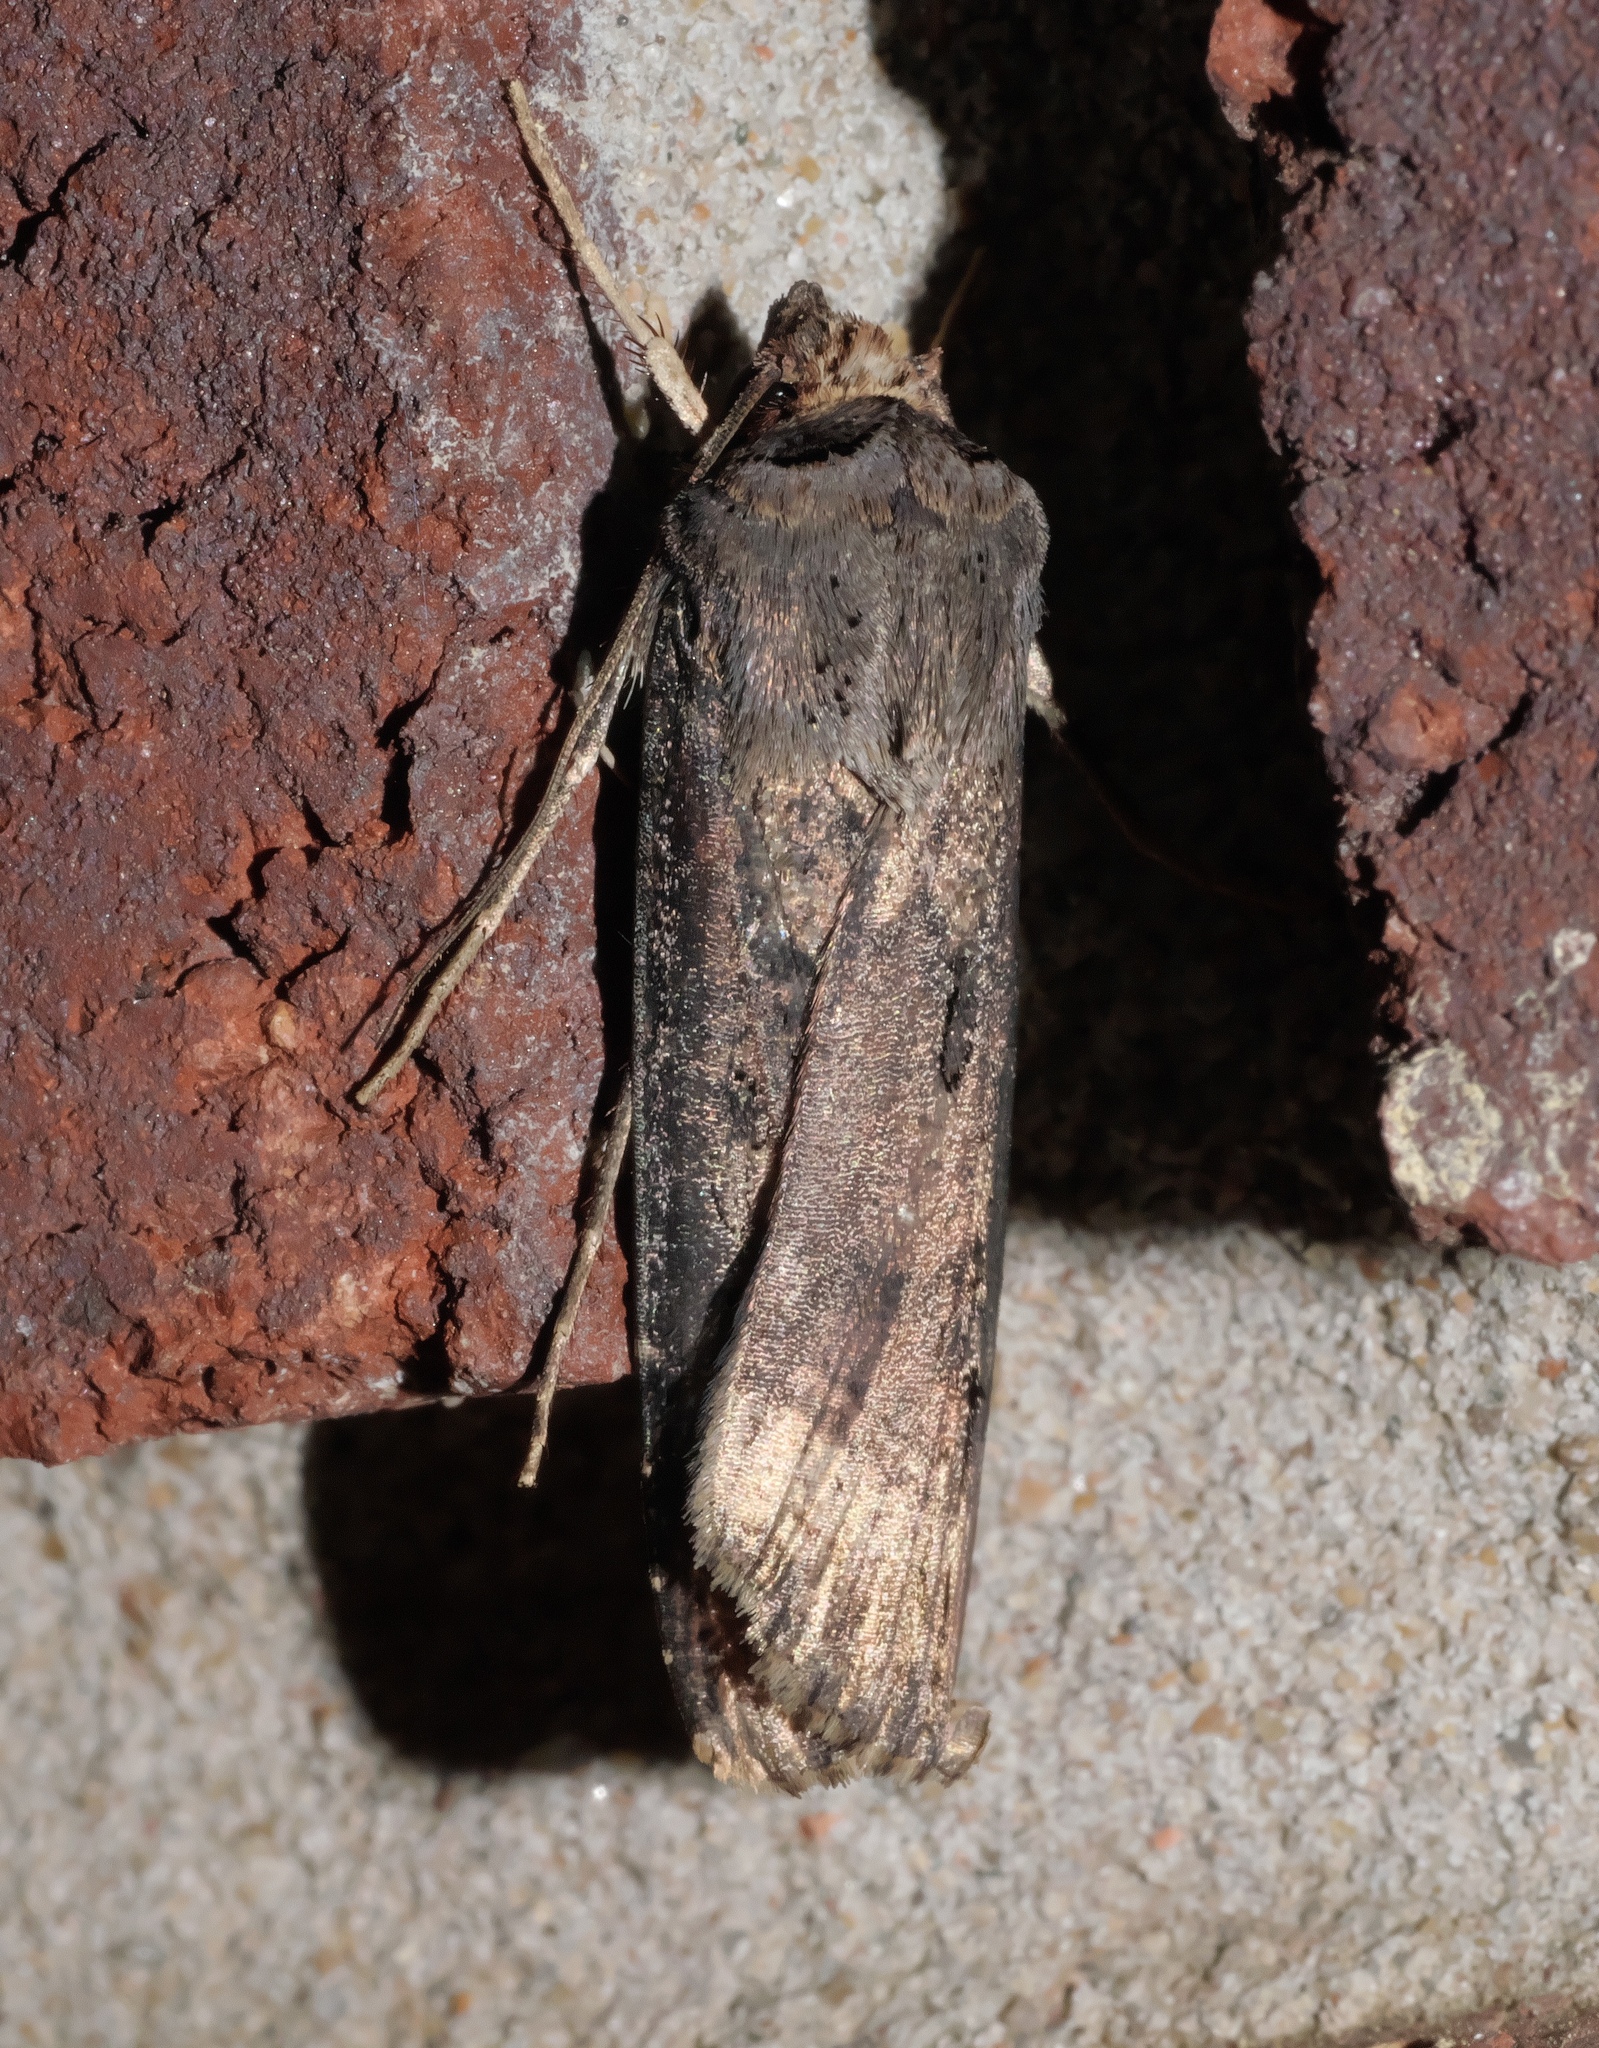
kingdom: Animalia
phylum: Arthropoda
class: Insecta
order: Lepidoptera
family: Noctuidae
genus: Agrotis
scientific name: Agrotis ipsilon
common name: Dark sword-grass
